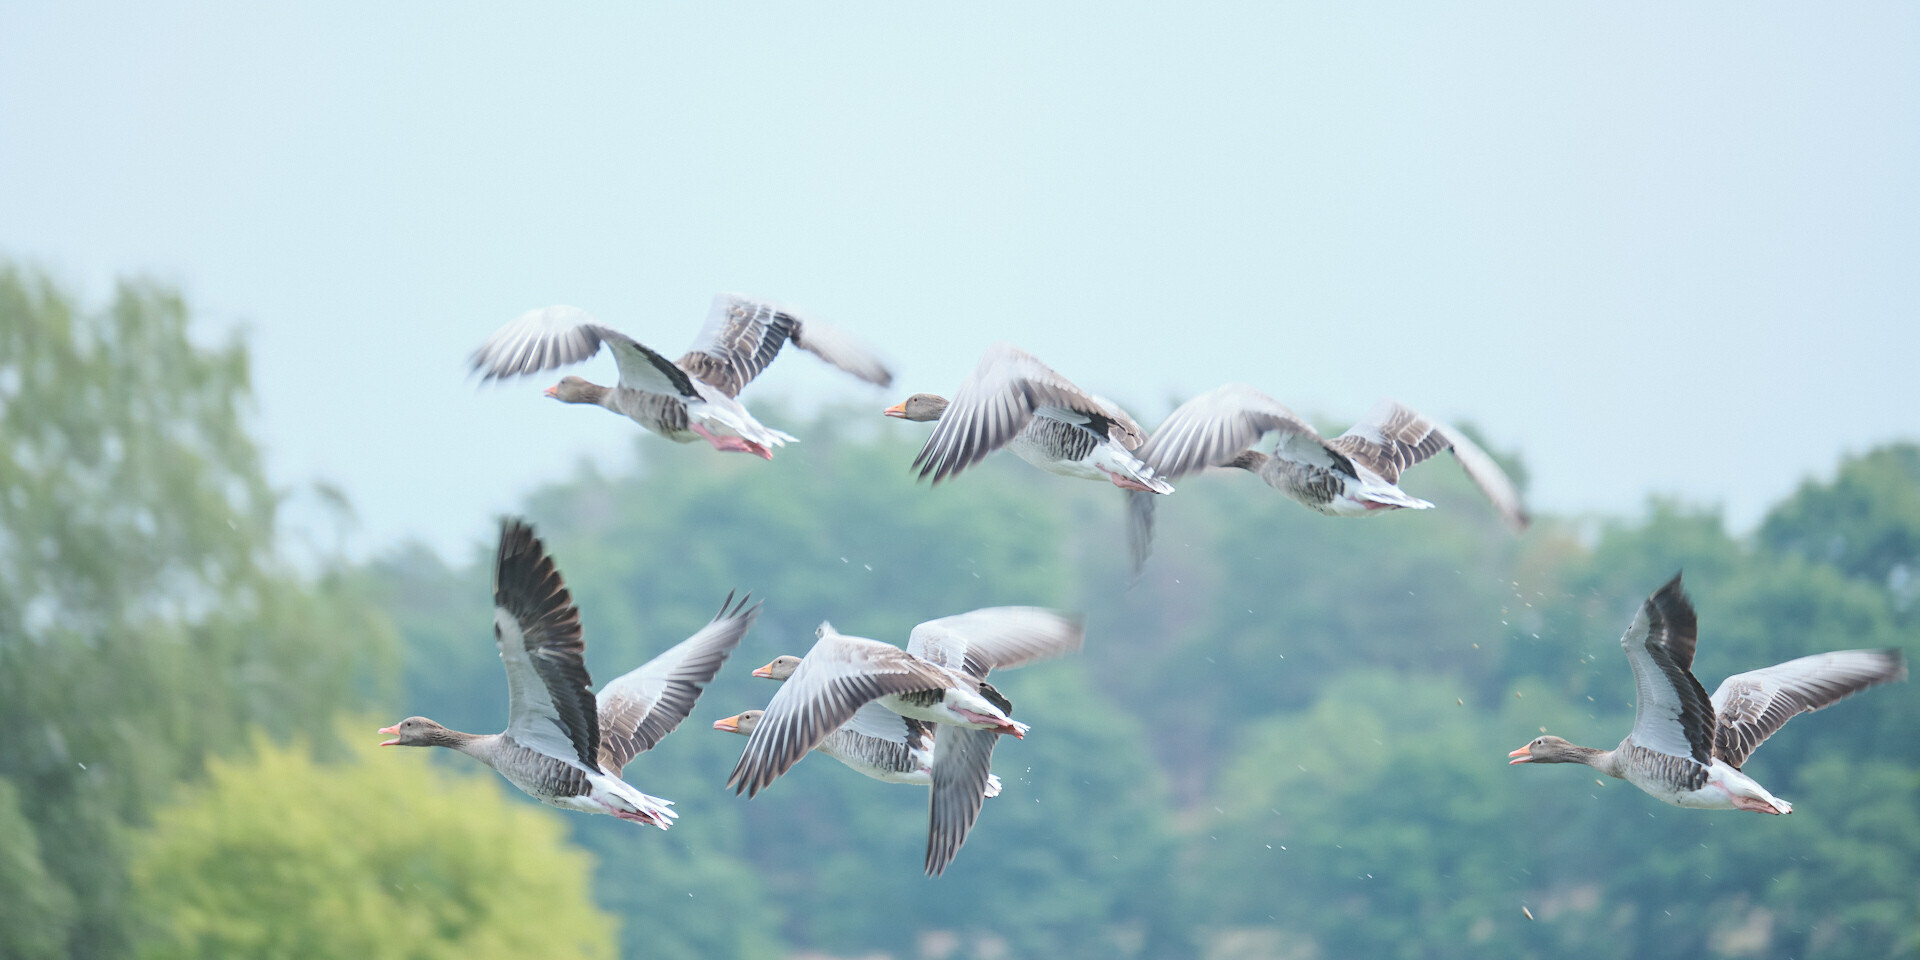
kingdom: Animalia
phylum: Chordata
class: Aves
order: Anseriformes
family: Anatidae
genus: Anser
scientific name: Anser anser
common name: Greylag goose
